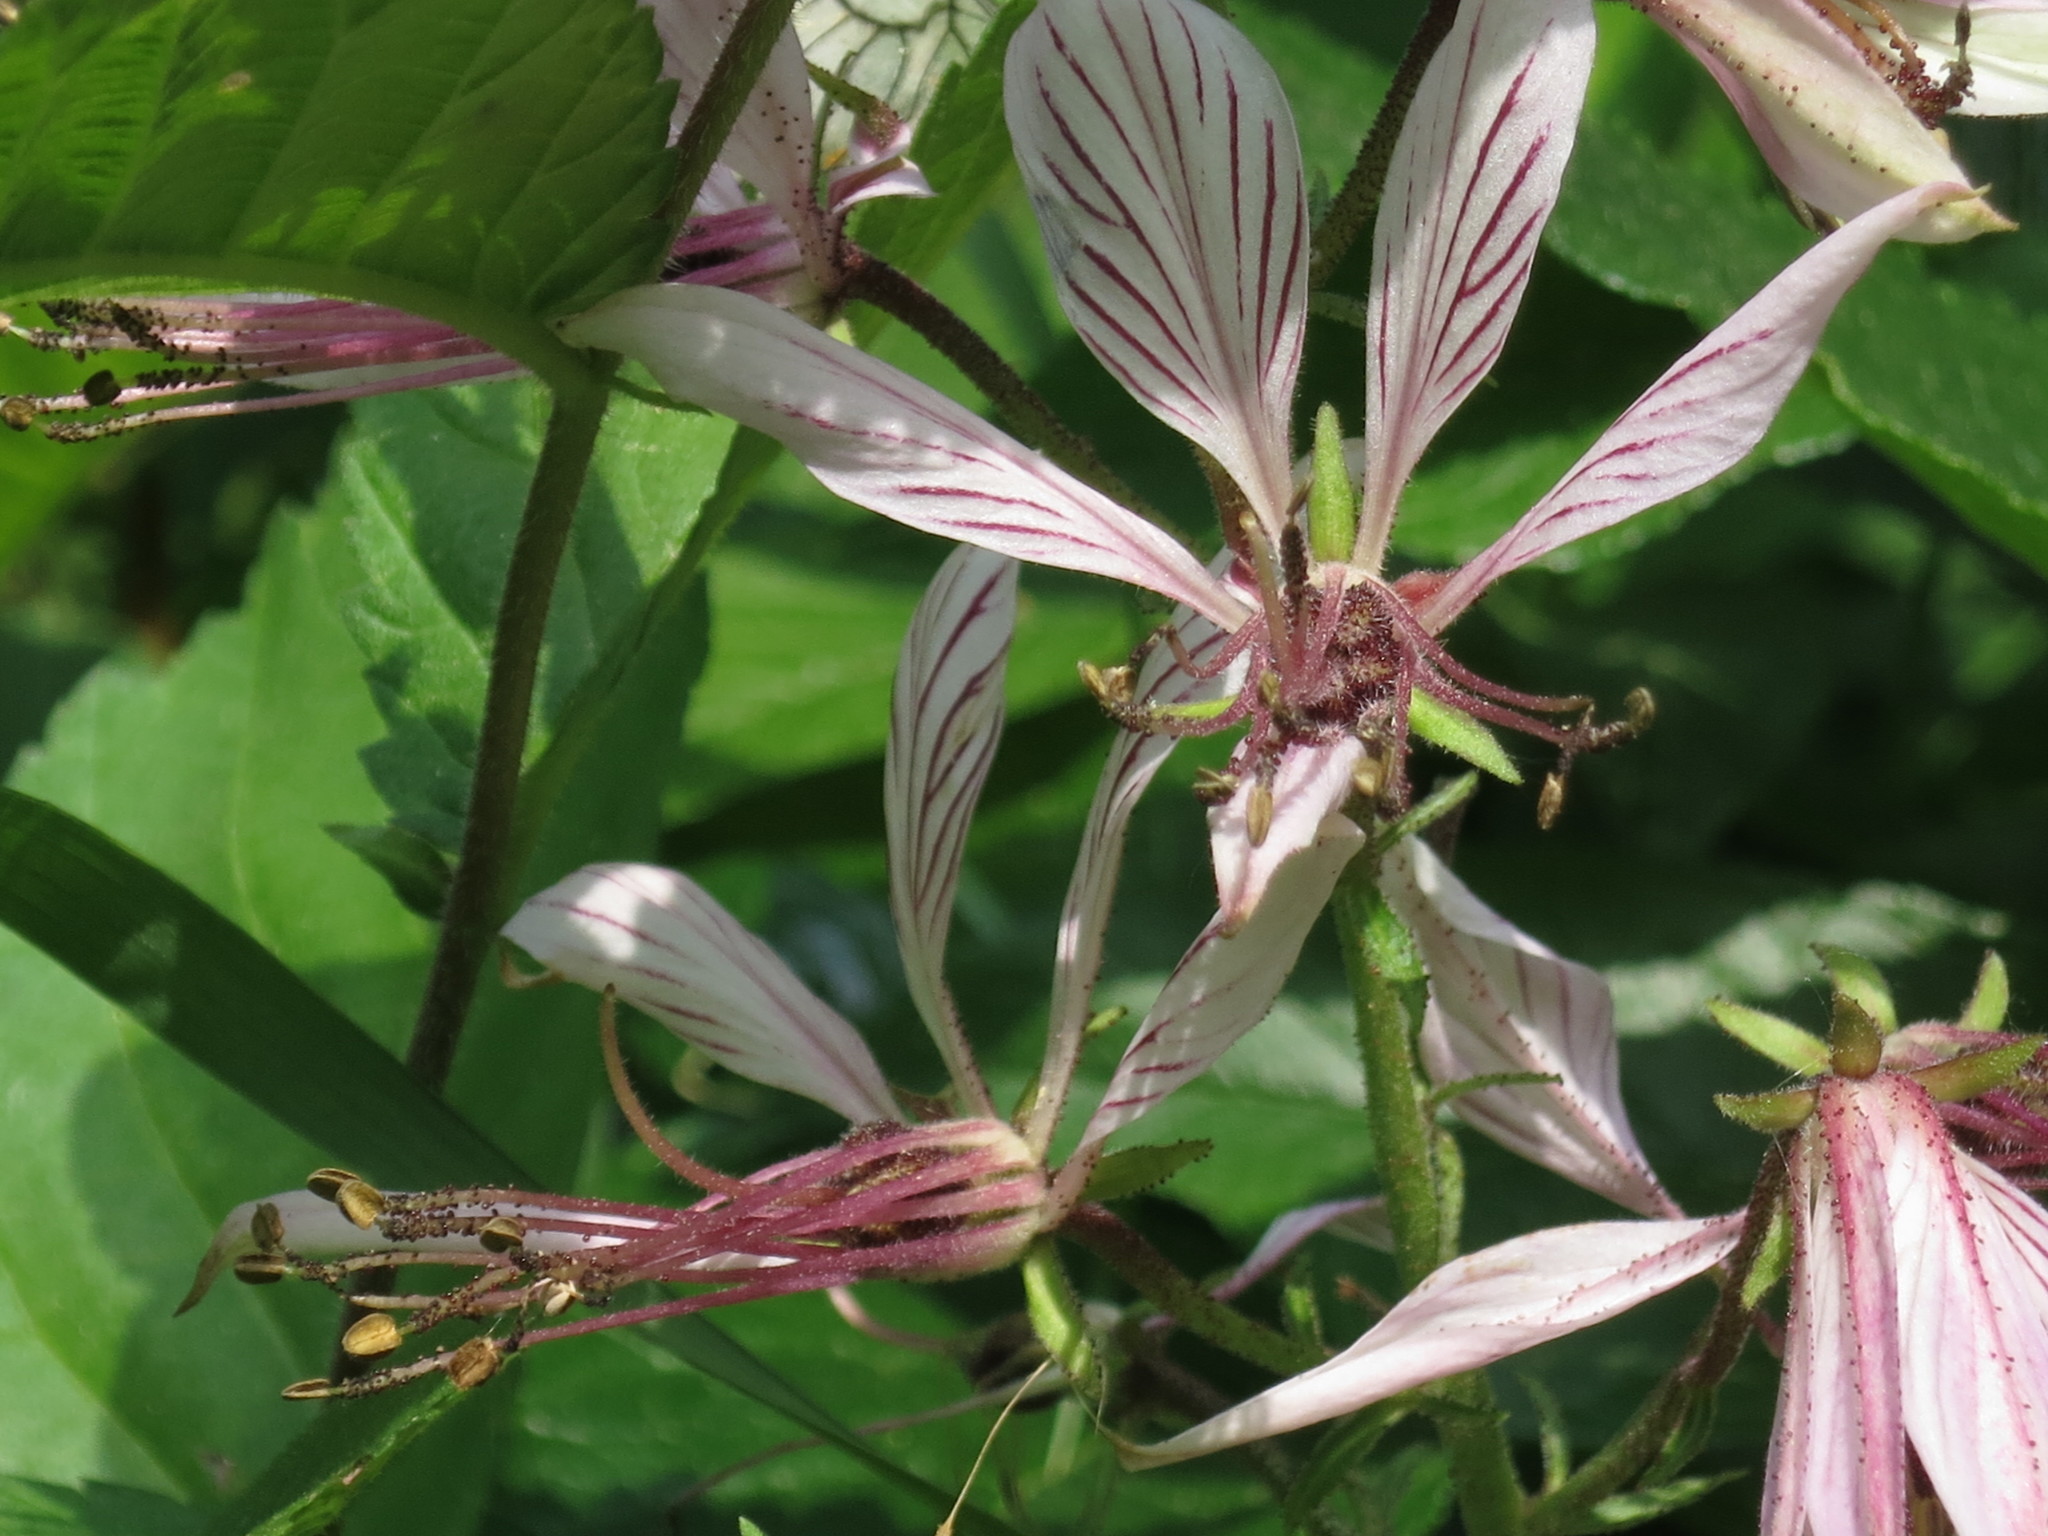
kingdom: Plantae
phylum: Tracheophyta
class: Magnoliopsida
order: Sapindales
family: Rutaceae
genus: Dictamnus
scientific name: Dictamnus dasycarpus
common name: Dense-fruit dittany
